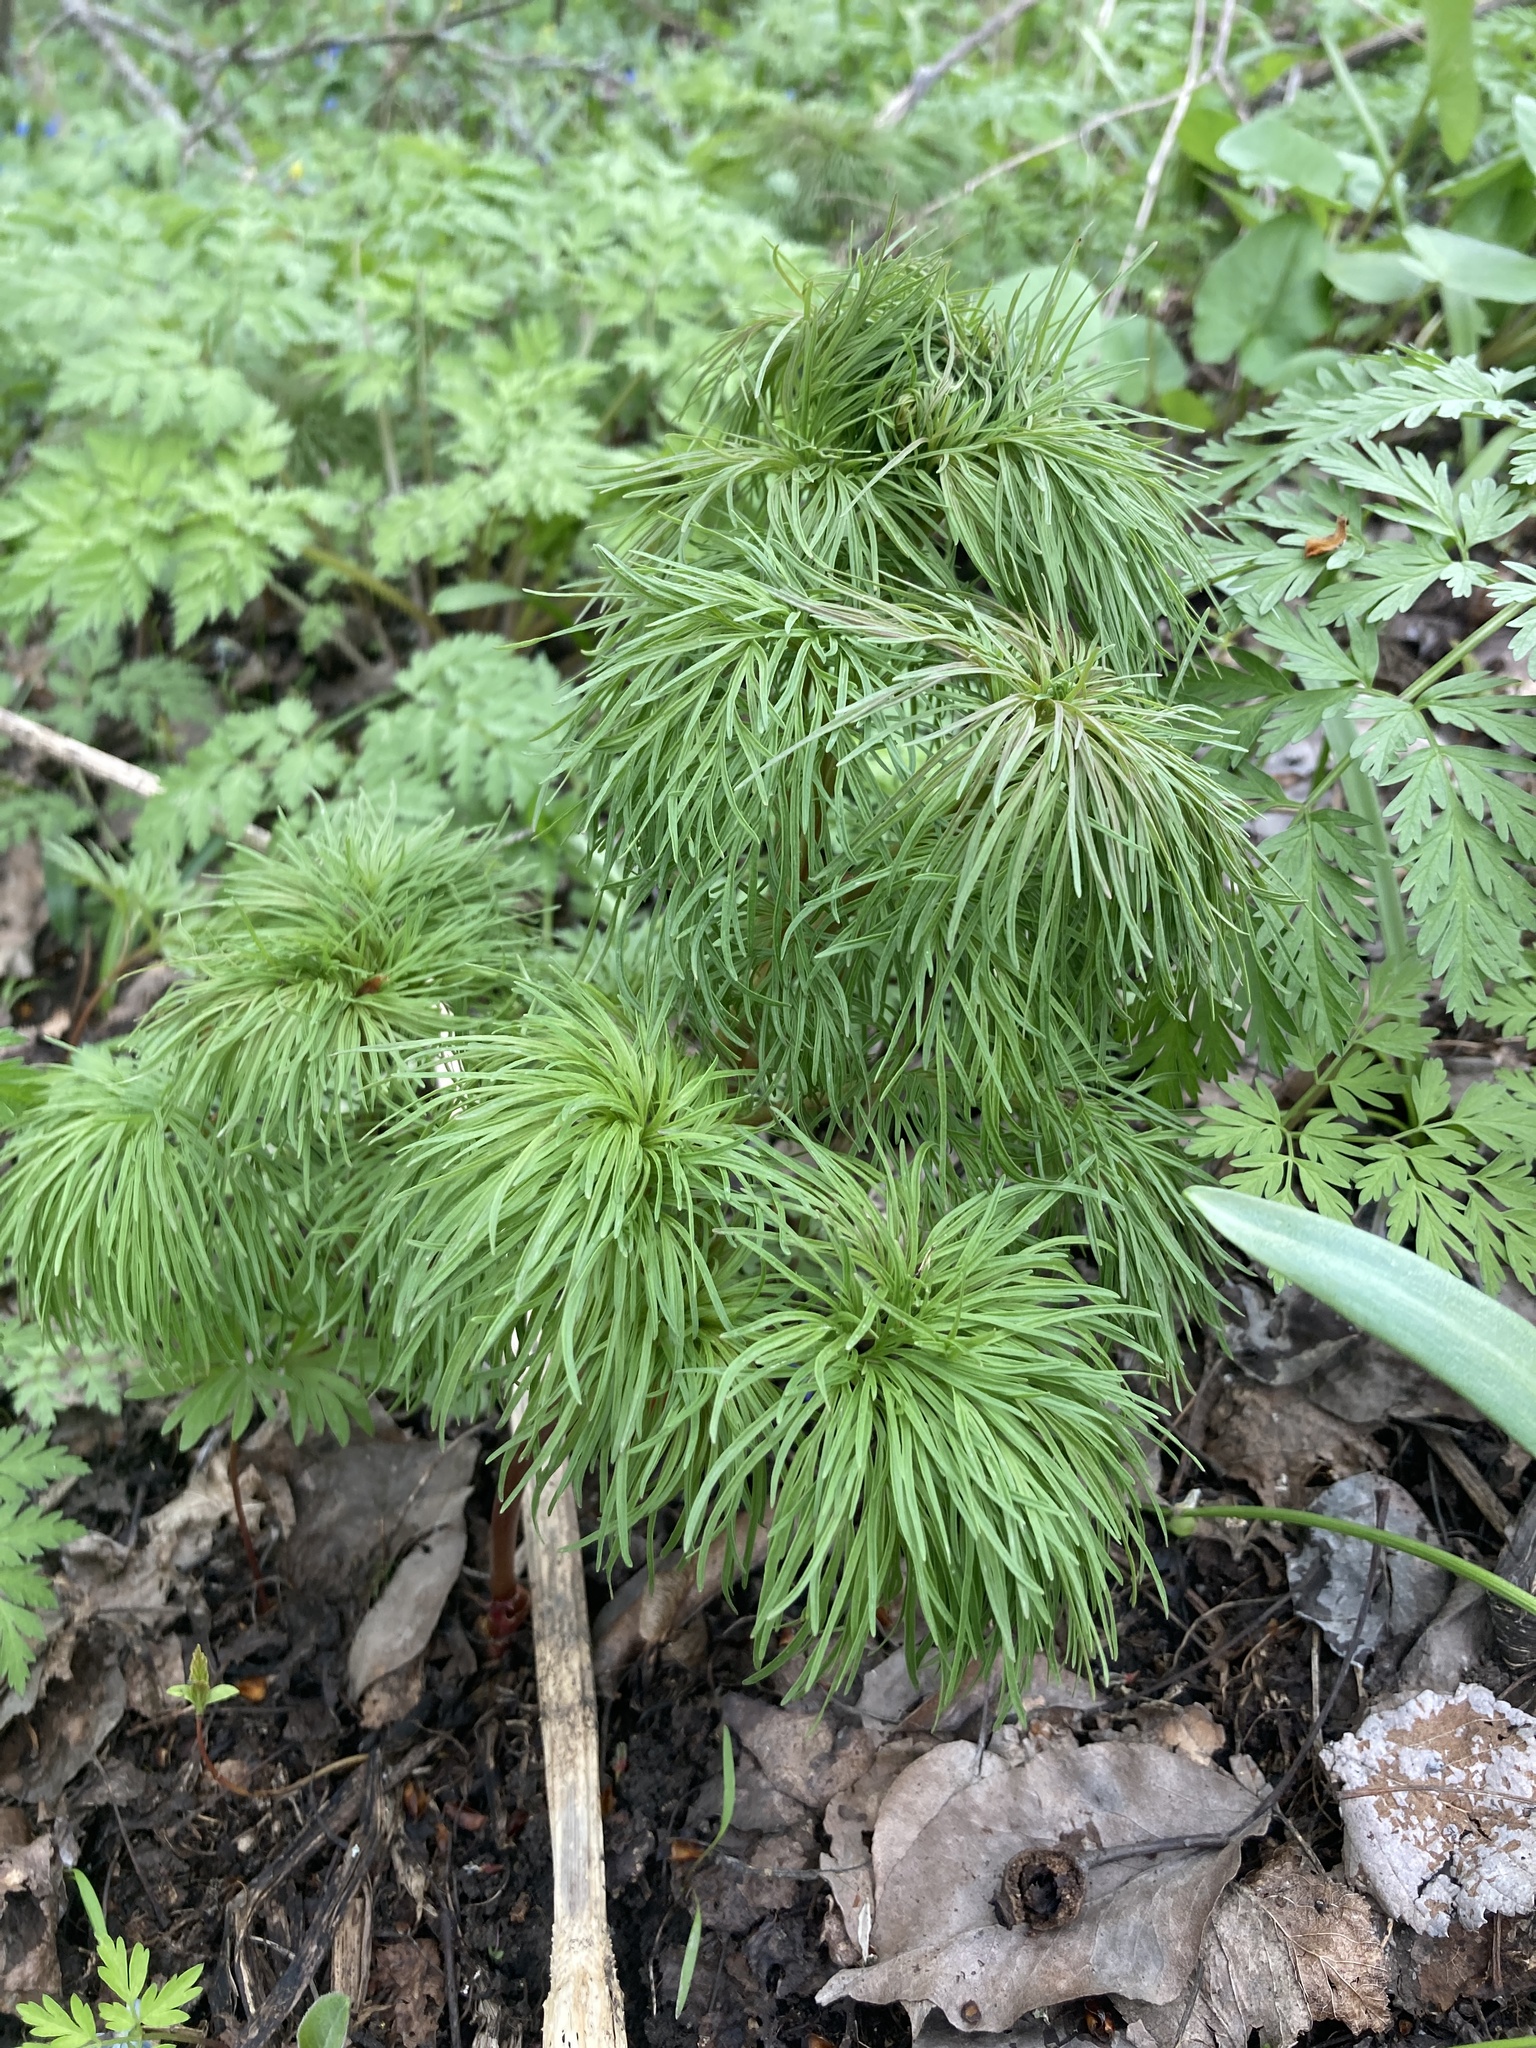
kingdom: Plantae
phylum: Tracheophyta
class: Magnoliopsida
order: Saxifragales
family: Paeoniaceae
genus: Paeonia
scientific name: Paeonia tenuifolia
